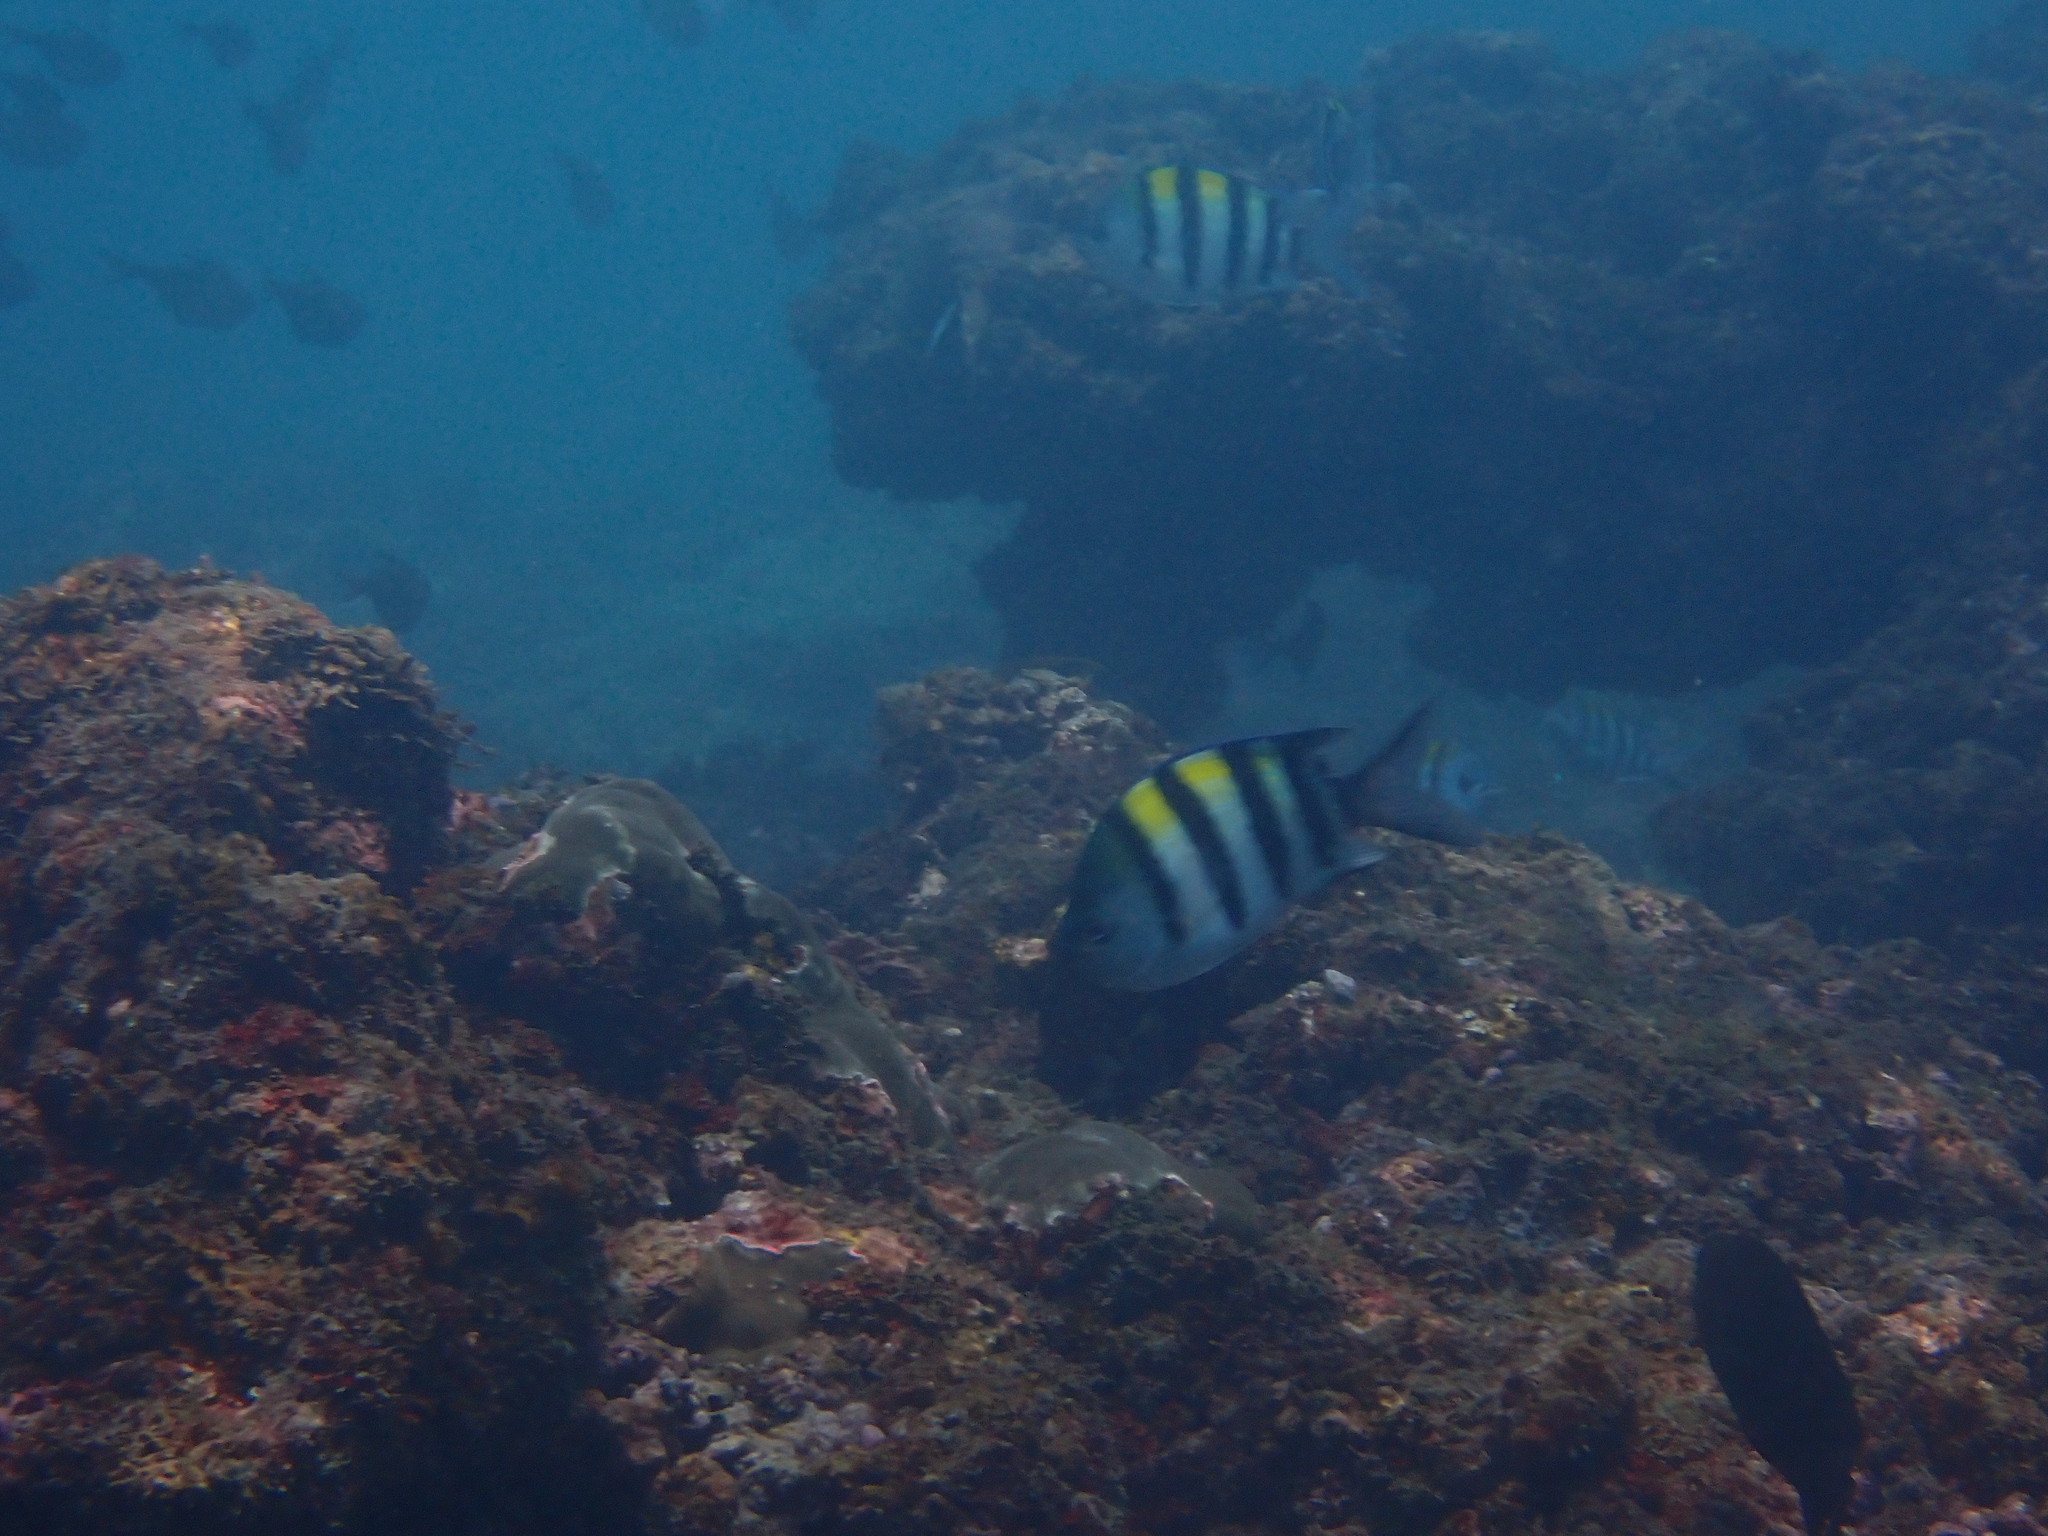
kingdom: Animalia
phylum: Chordata
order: Perciformes
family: Pomacentridae
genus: Abudefduf
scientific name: Abudefduf vaigiensis
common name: Indo-pacific sergeant
